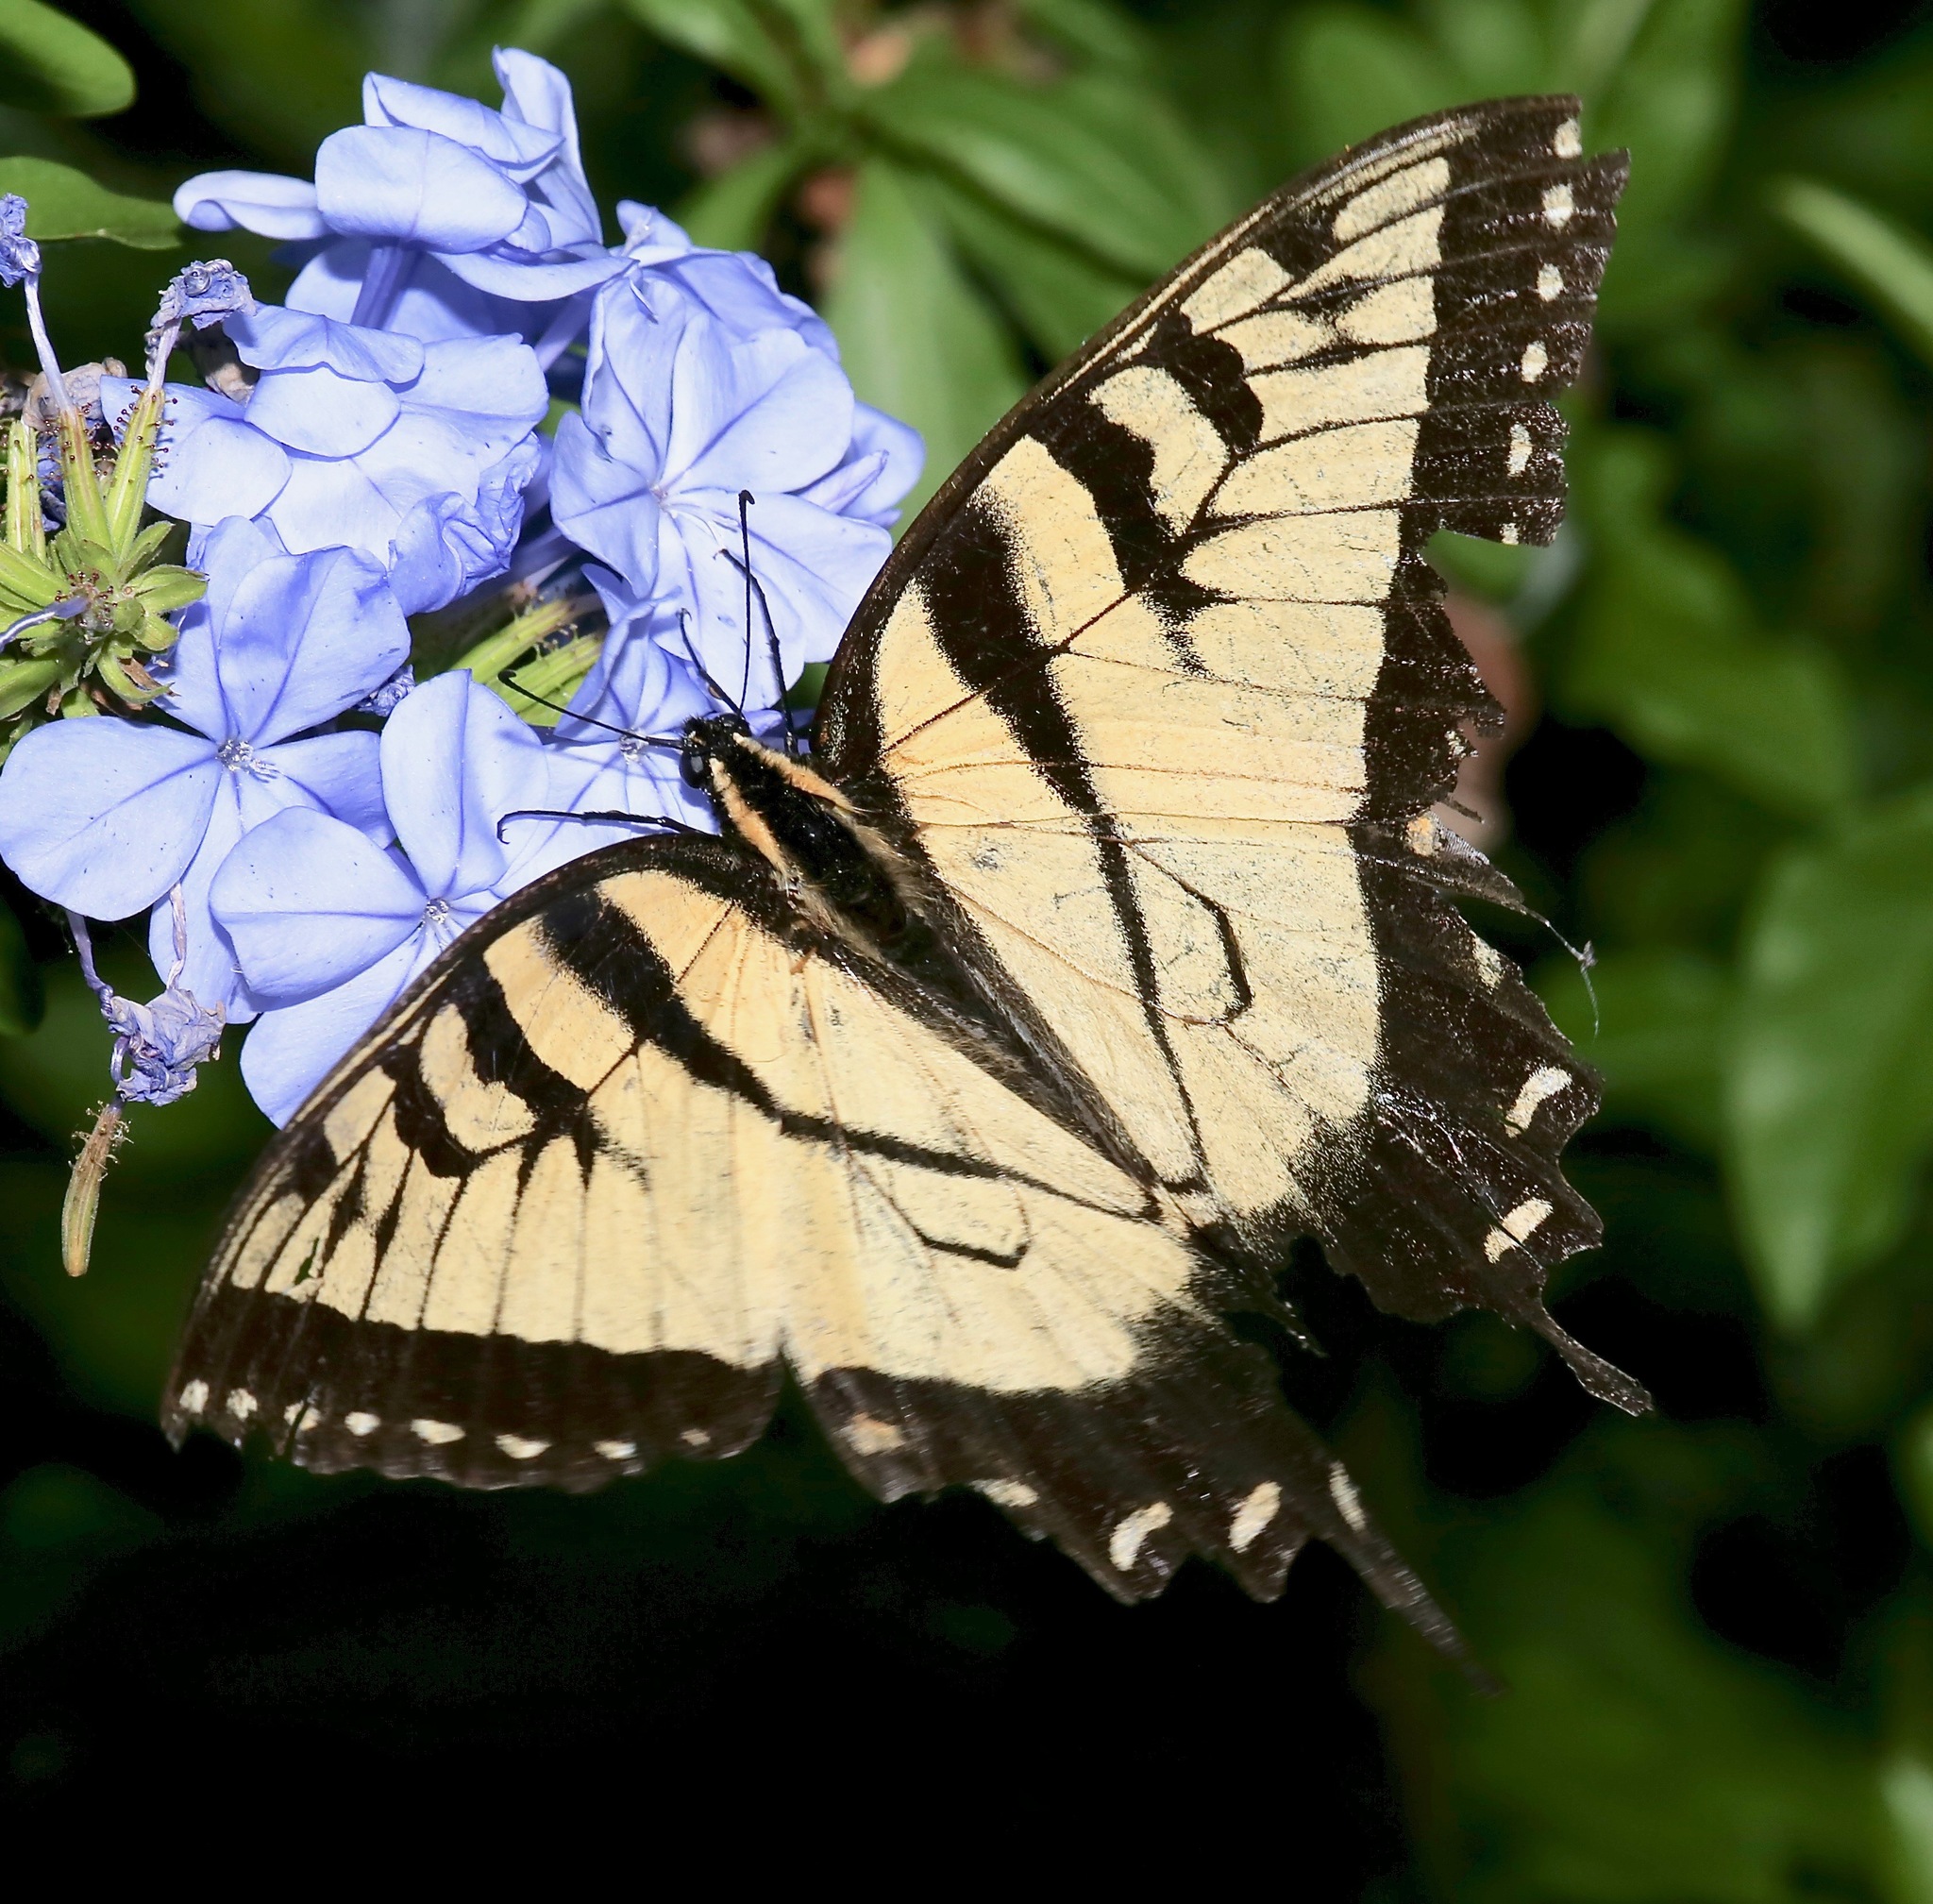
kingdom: Animalia
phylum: Arthropoda
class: Insecta
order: Lepidoptera
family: Papilionidae
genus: Papilio
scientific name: Papilio glaucus
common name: Tiger swallowtail
